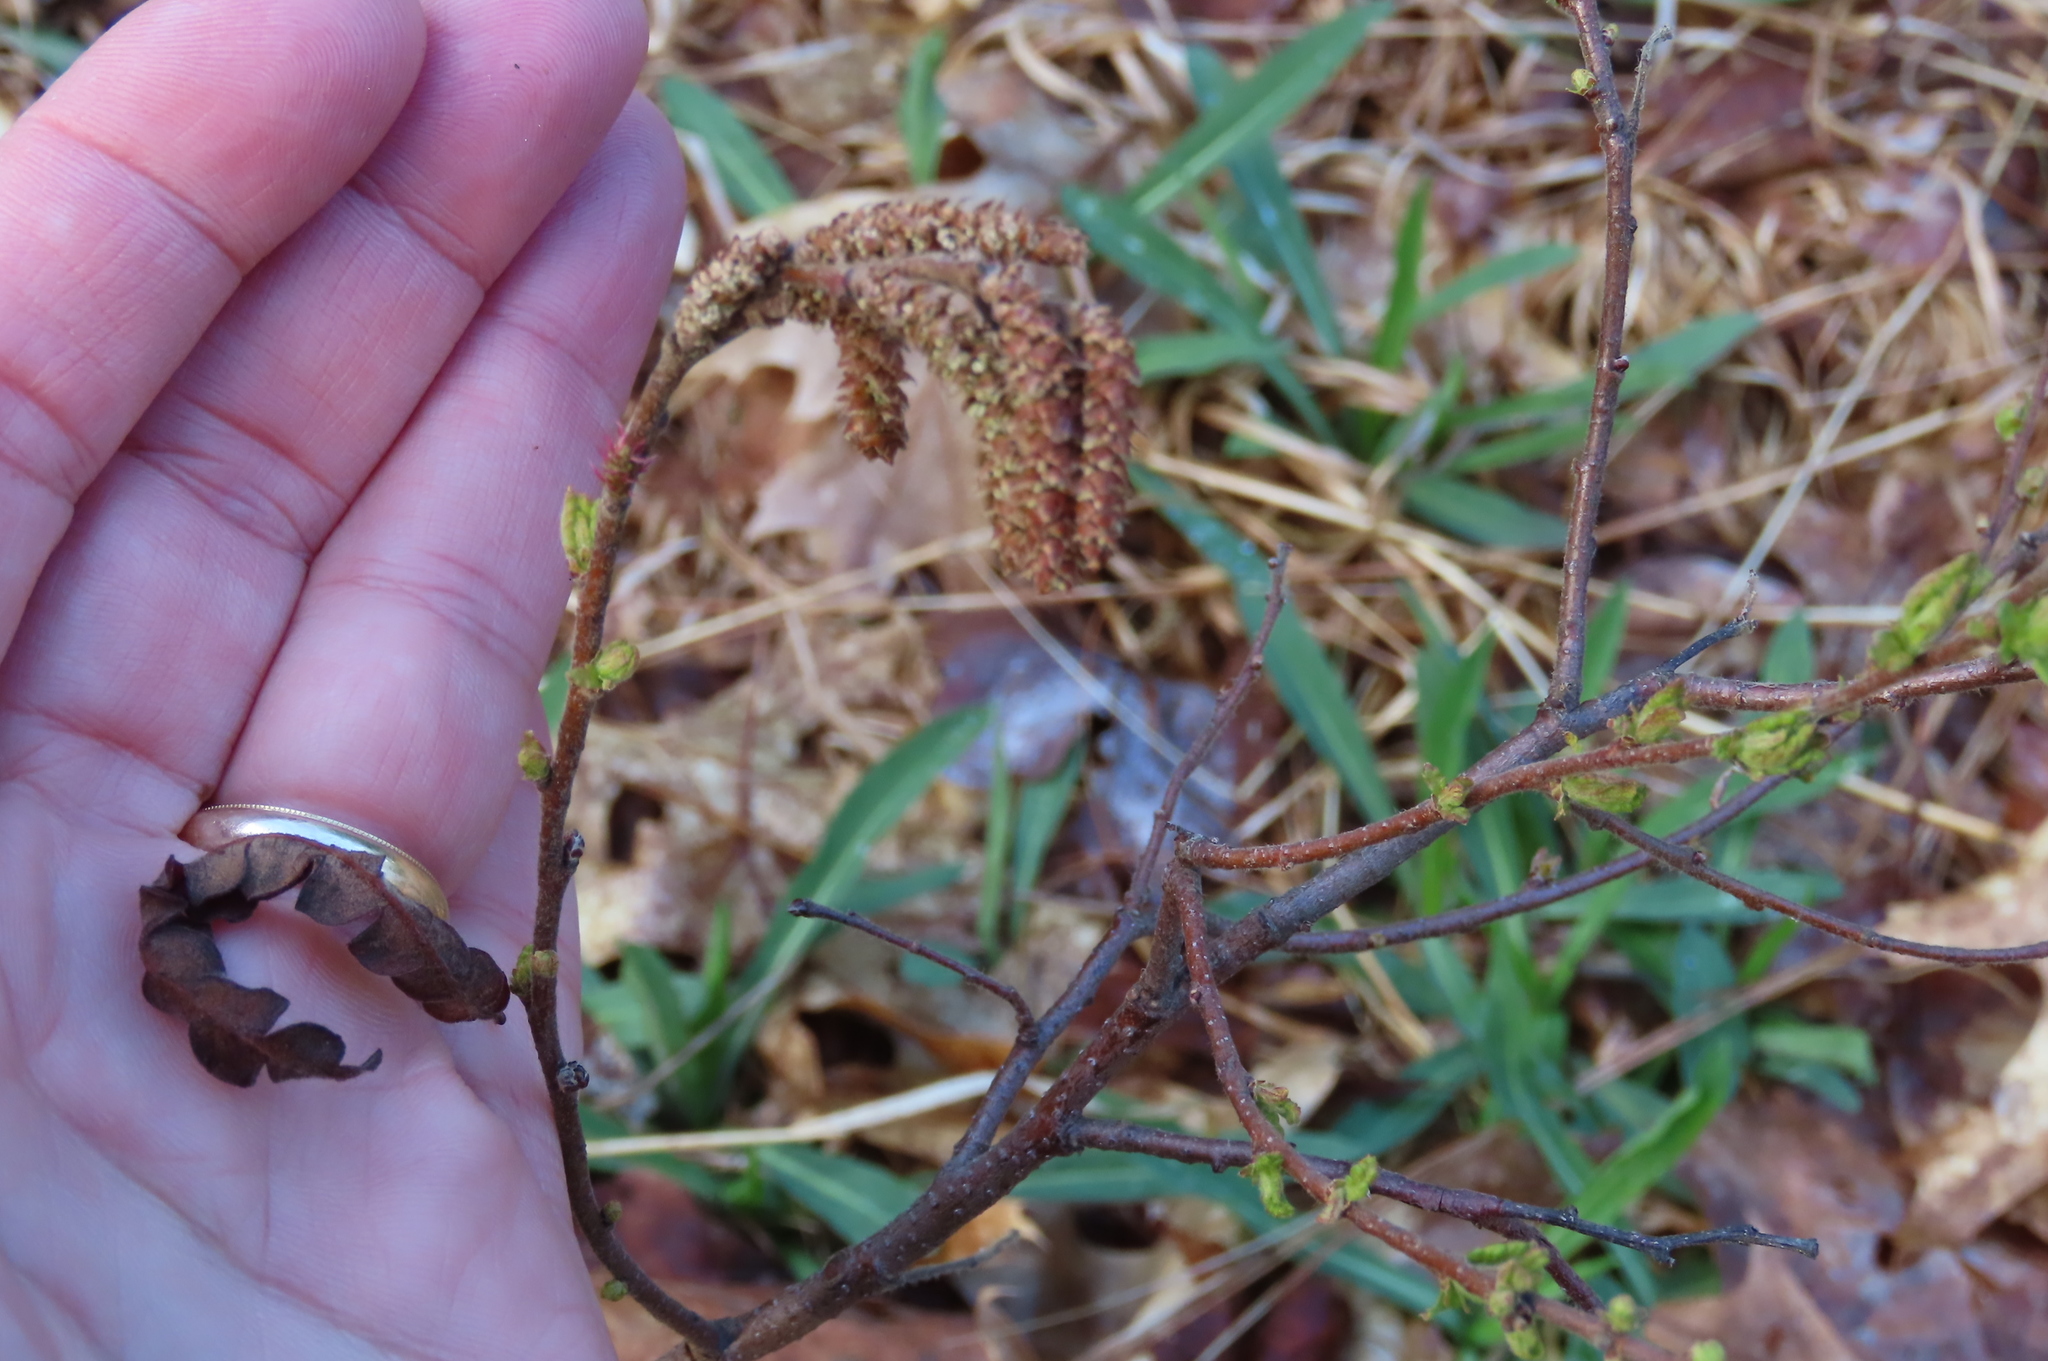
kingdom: Plantae
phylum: Tracheophyta
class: Magnoliopsida
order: Fagales
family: Myricaceae
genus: Comptonia
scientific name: Comptonia peregrina
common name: Sweet-fern
